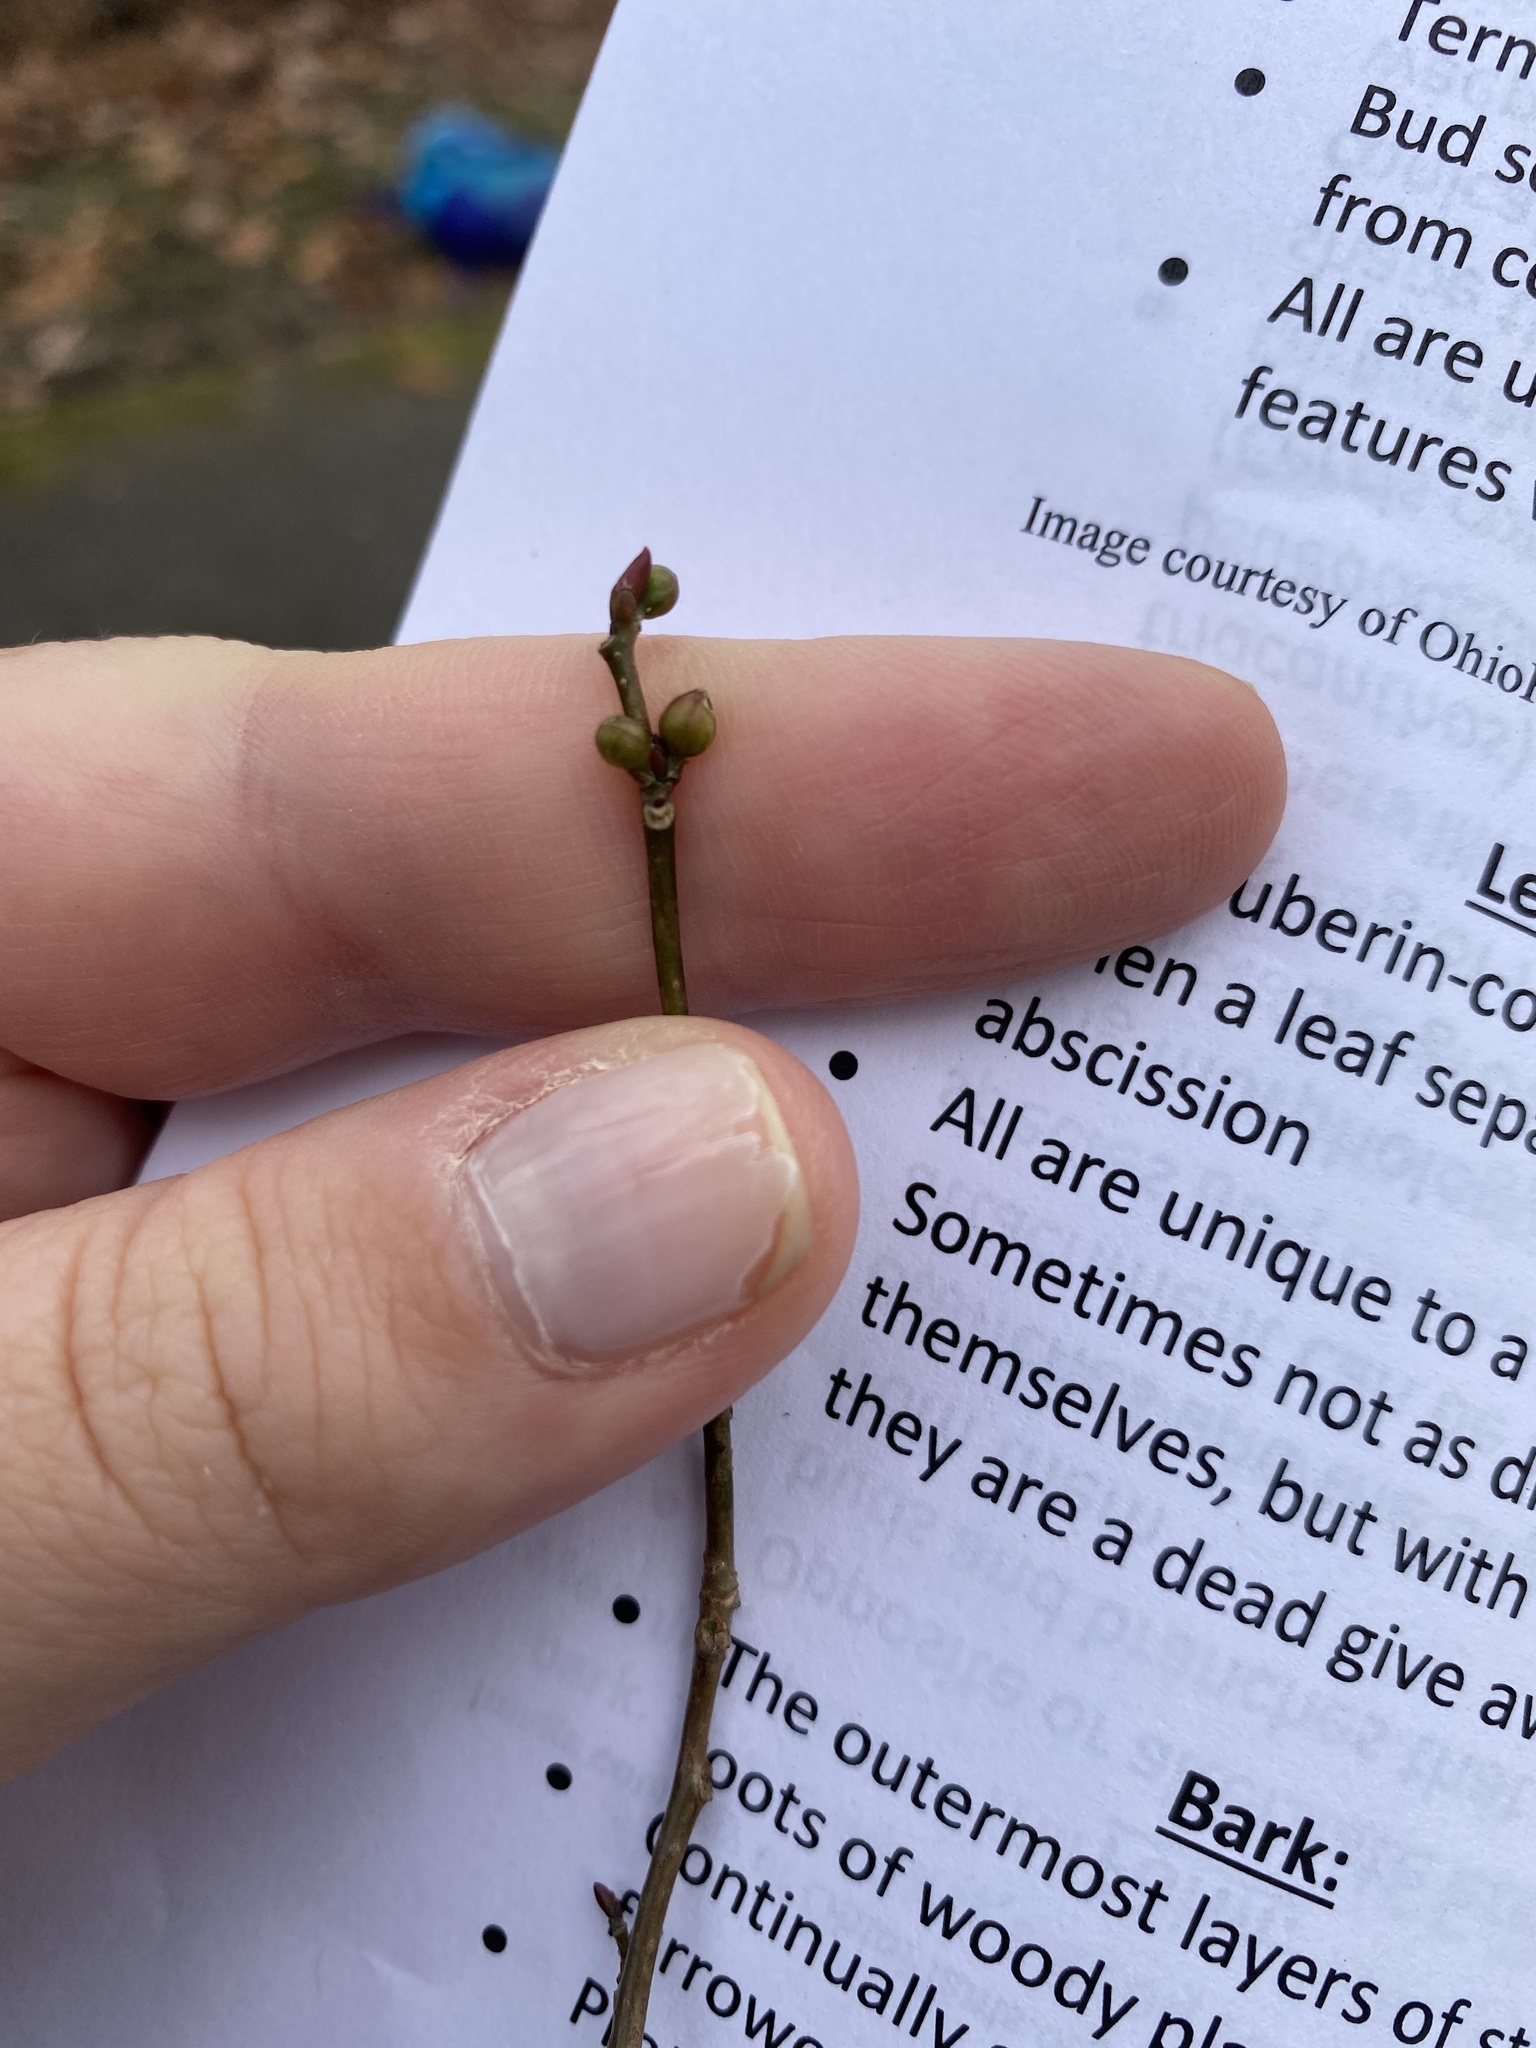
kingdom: Plantae
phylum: Tracheophyta
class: Magnoliopsida
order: Laurales
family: Lauraceae
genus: Lindera
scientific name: Lindera benzoin
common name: Spicebush
